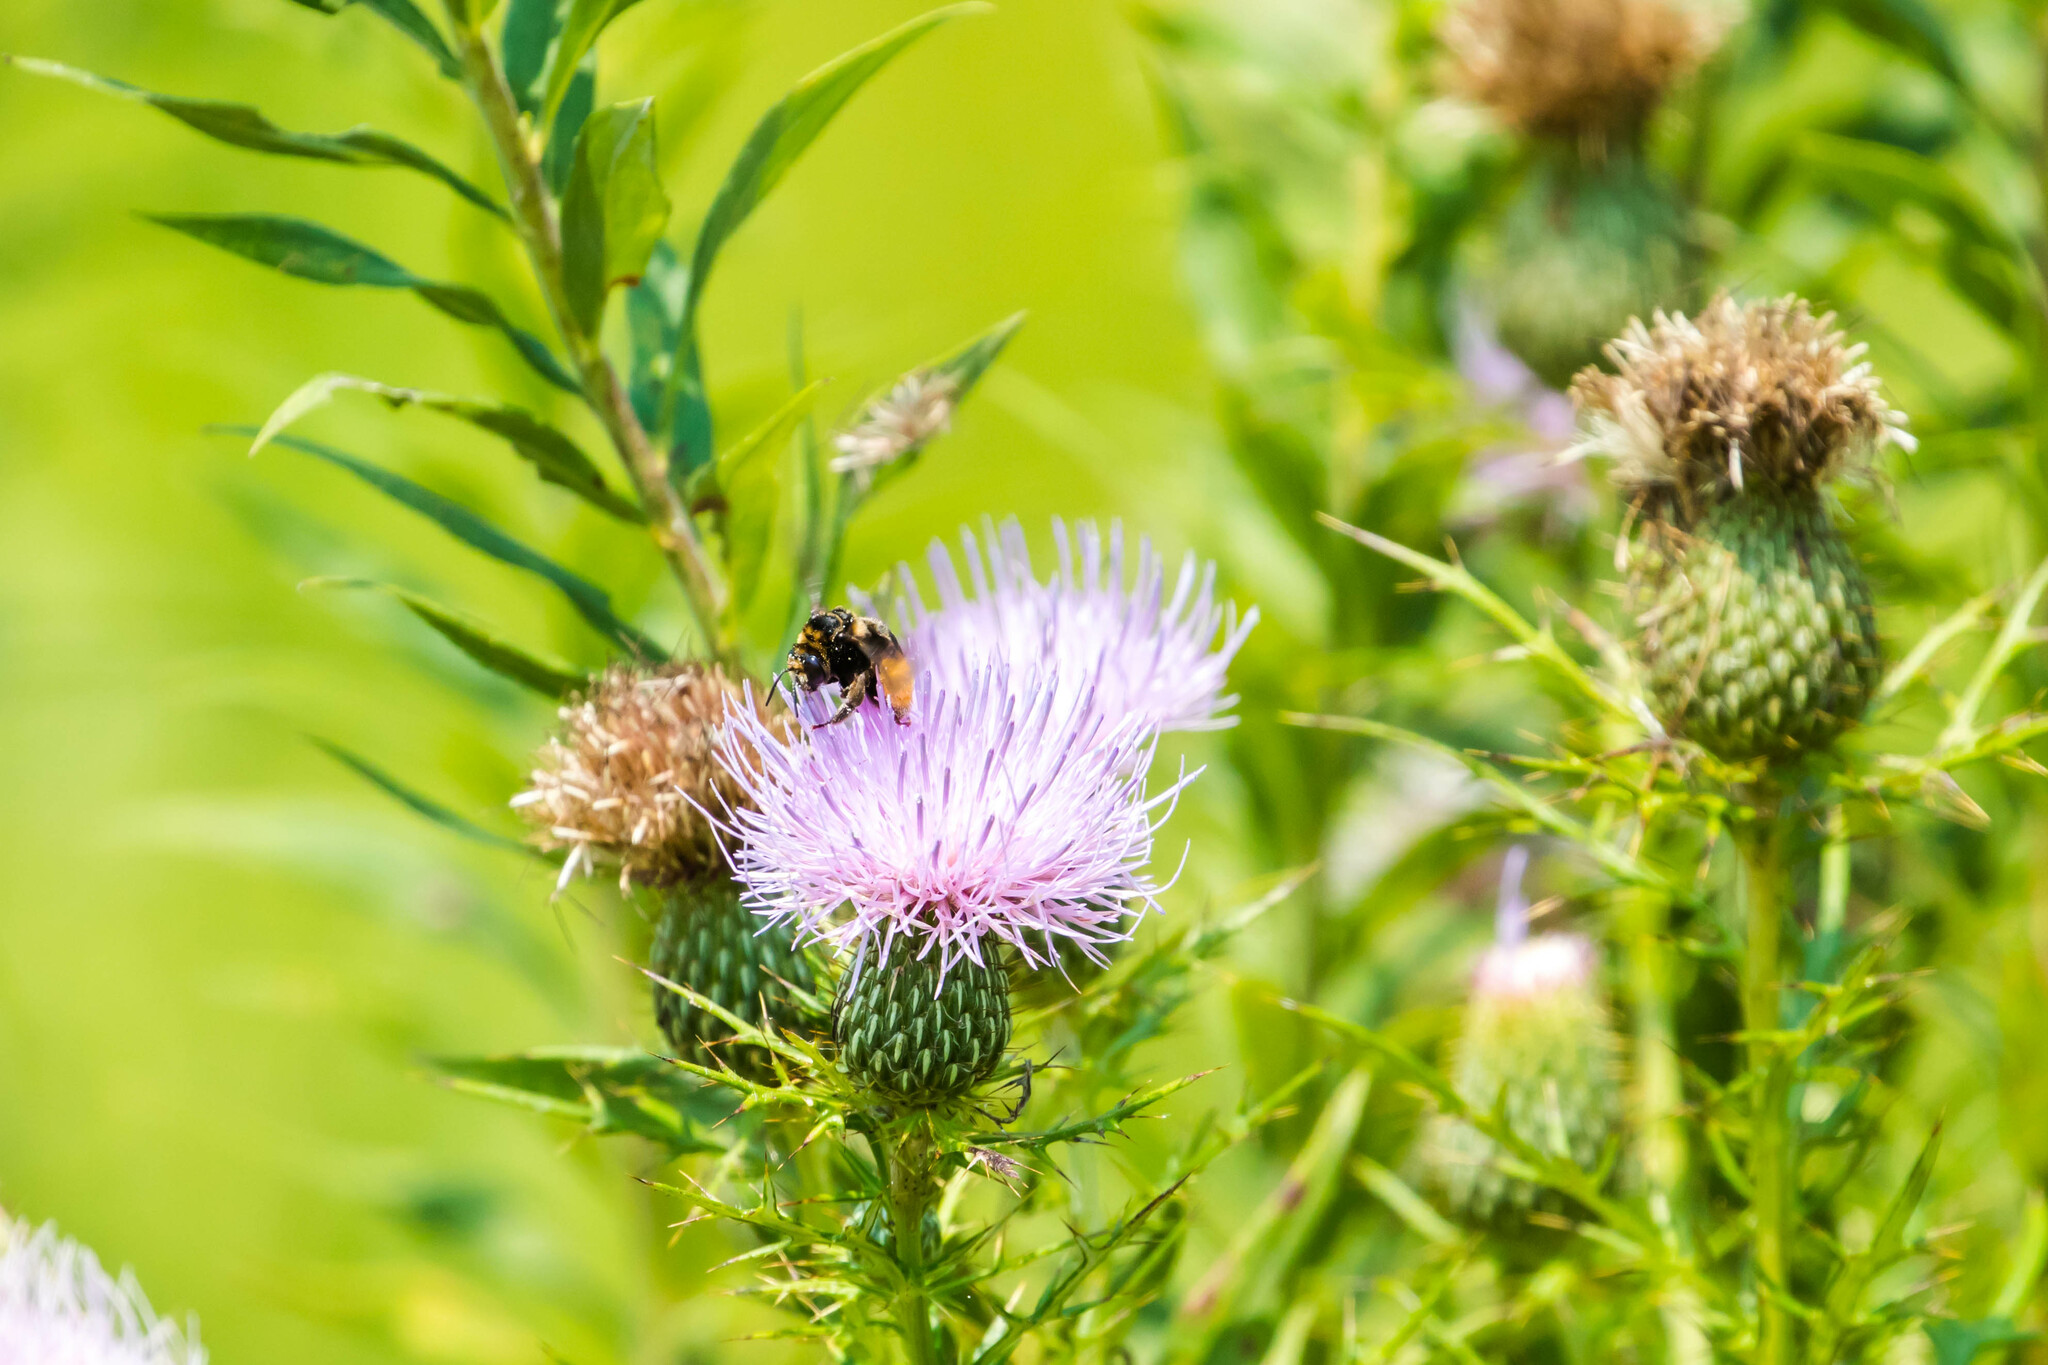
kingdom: Animalia
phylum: Arthropoda
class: Insecta
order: Hymenoptera
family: Apidae
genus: Svastra
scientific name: Svastra obliqua
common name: Oblique longhorn
